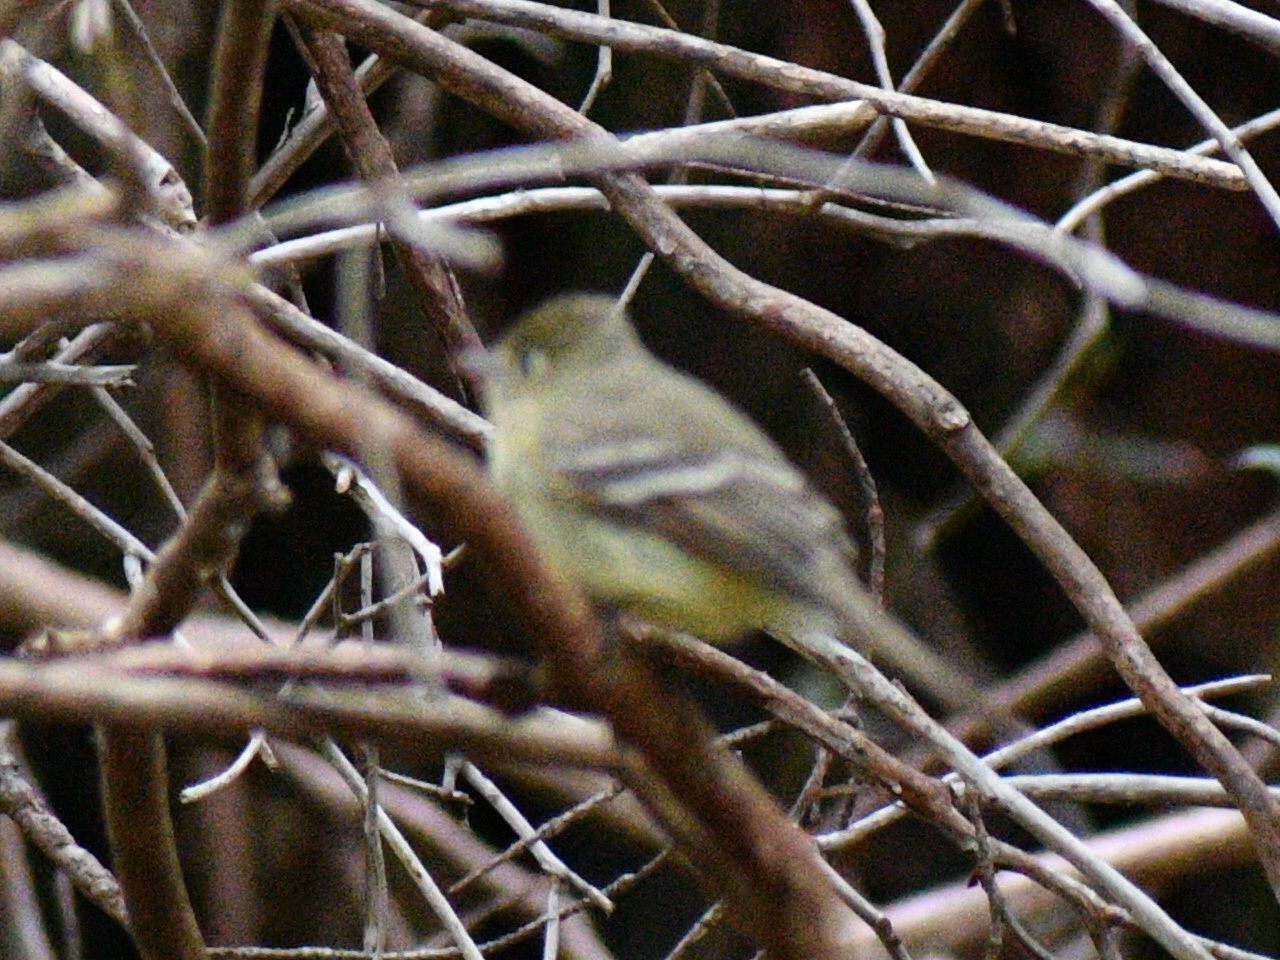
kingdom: Animalia
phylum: Chordata
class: Aves
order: Passeriformes
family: Tyrannidae
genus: Empidonax
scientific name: Empidonax difficilis
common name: Pacific-slope flycatcher
